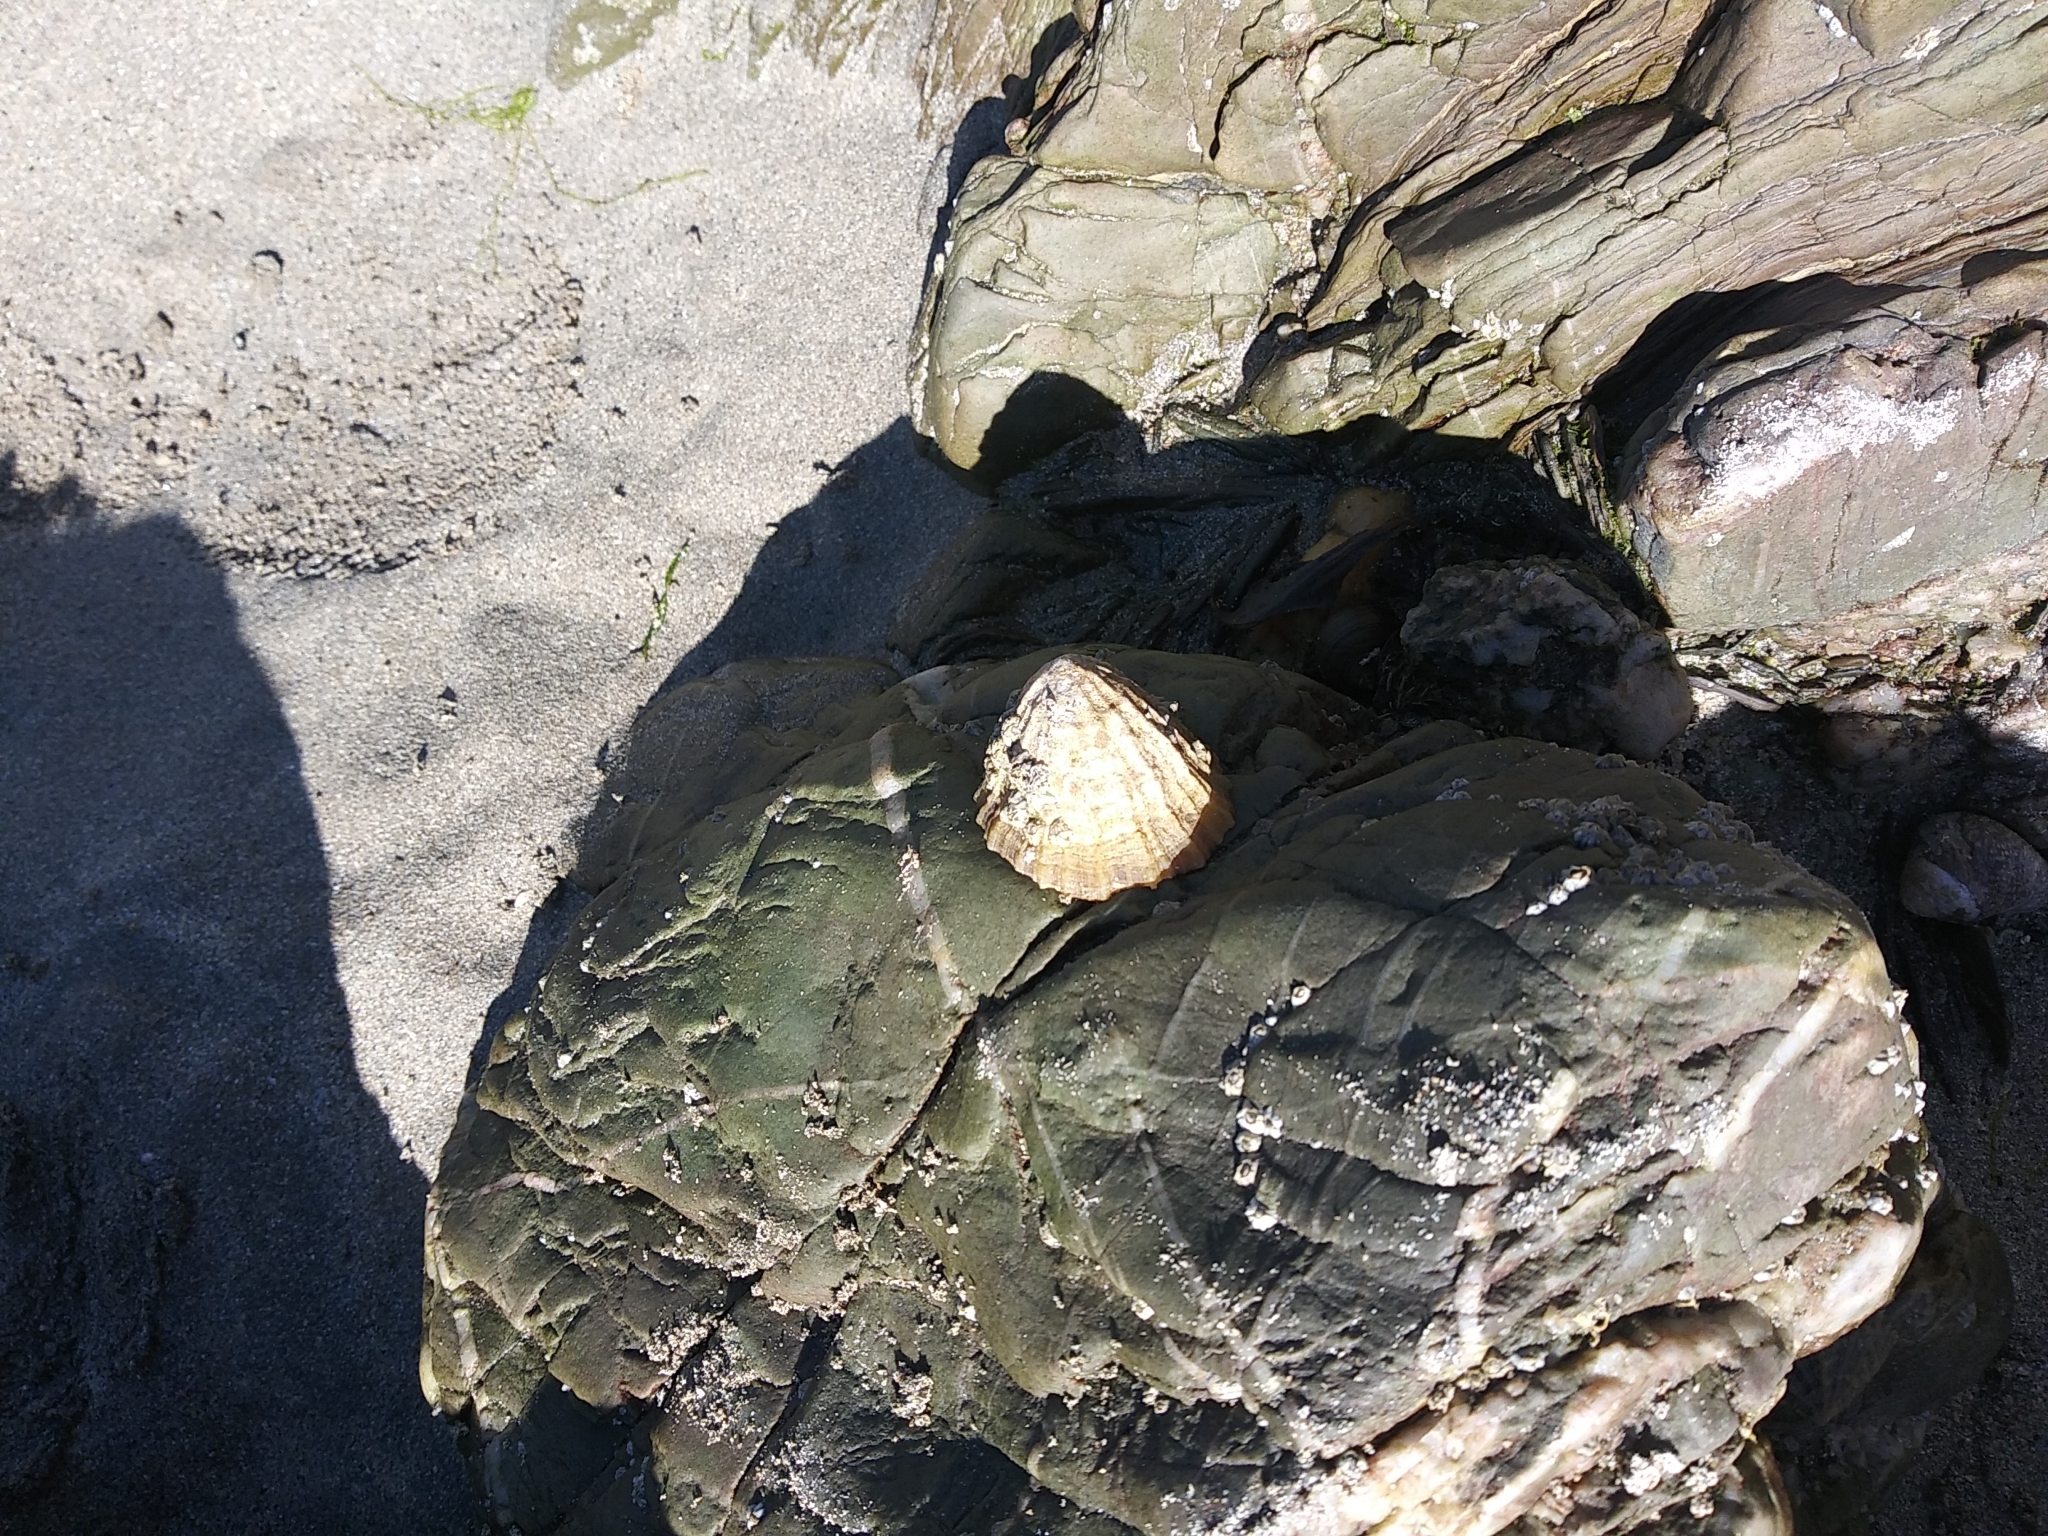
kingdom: Animalia
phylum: Mollusca
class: Gastropoda
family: Patellidae
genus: Patella
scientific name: Patella vulgata
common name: Common limpet
